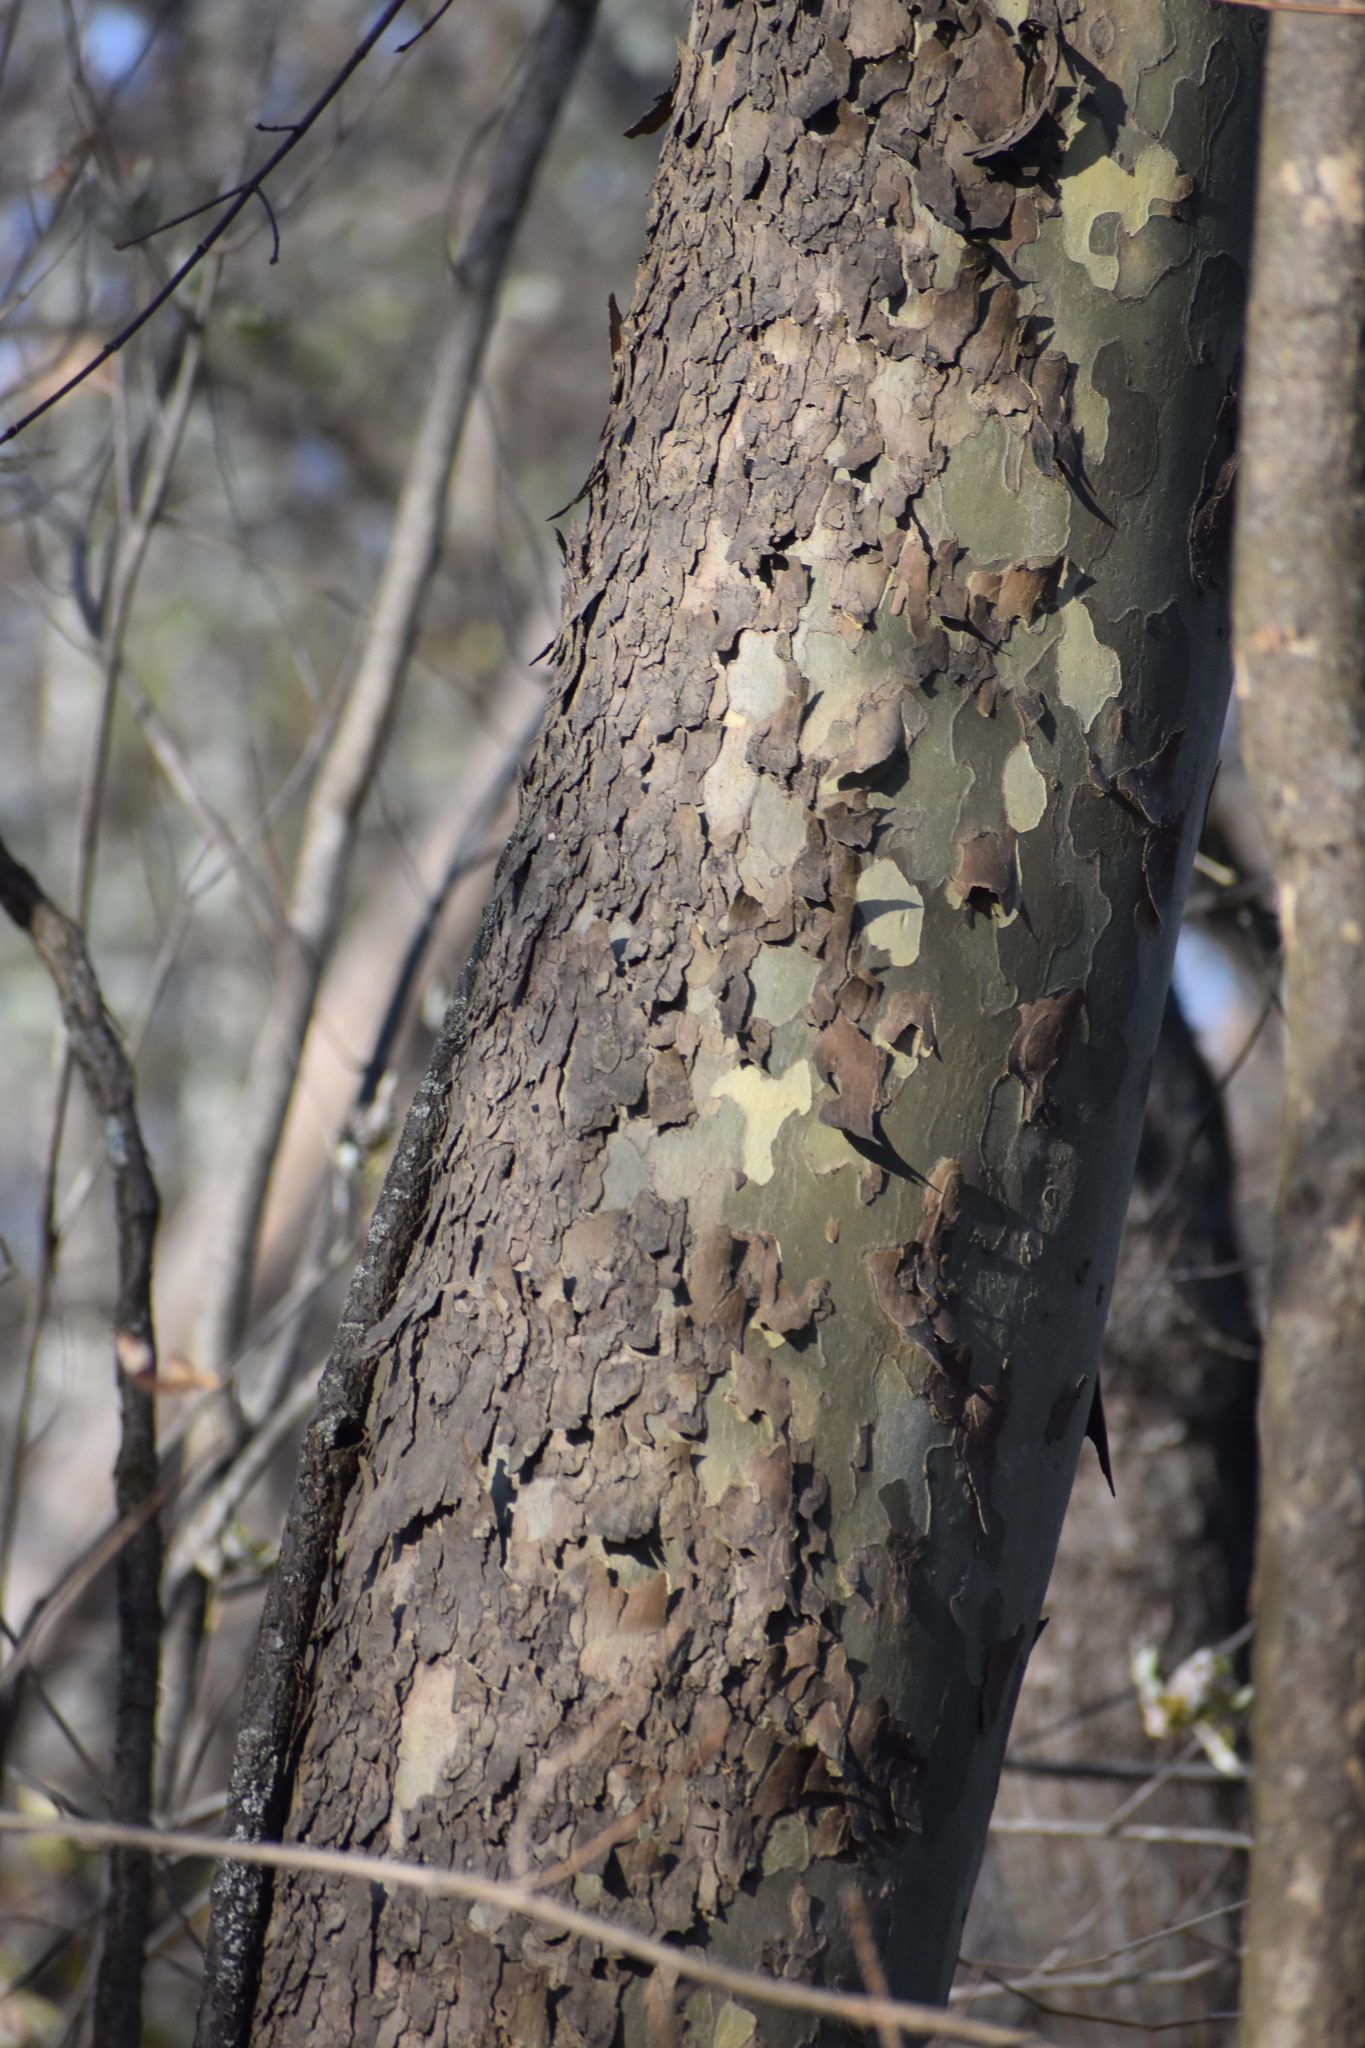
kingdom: Plantae
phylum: Tracheophyta
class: Magnoliopsida
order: Proteales
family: Platanaceae
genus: Platanus
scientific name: Platanus occidentalis
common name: American sycamore
